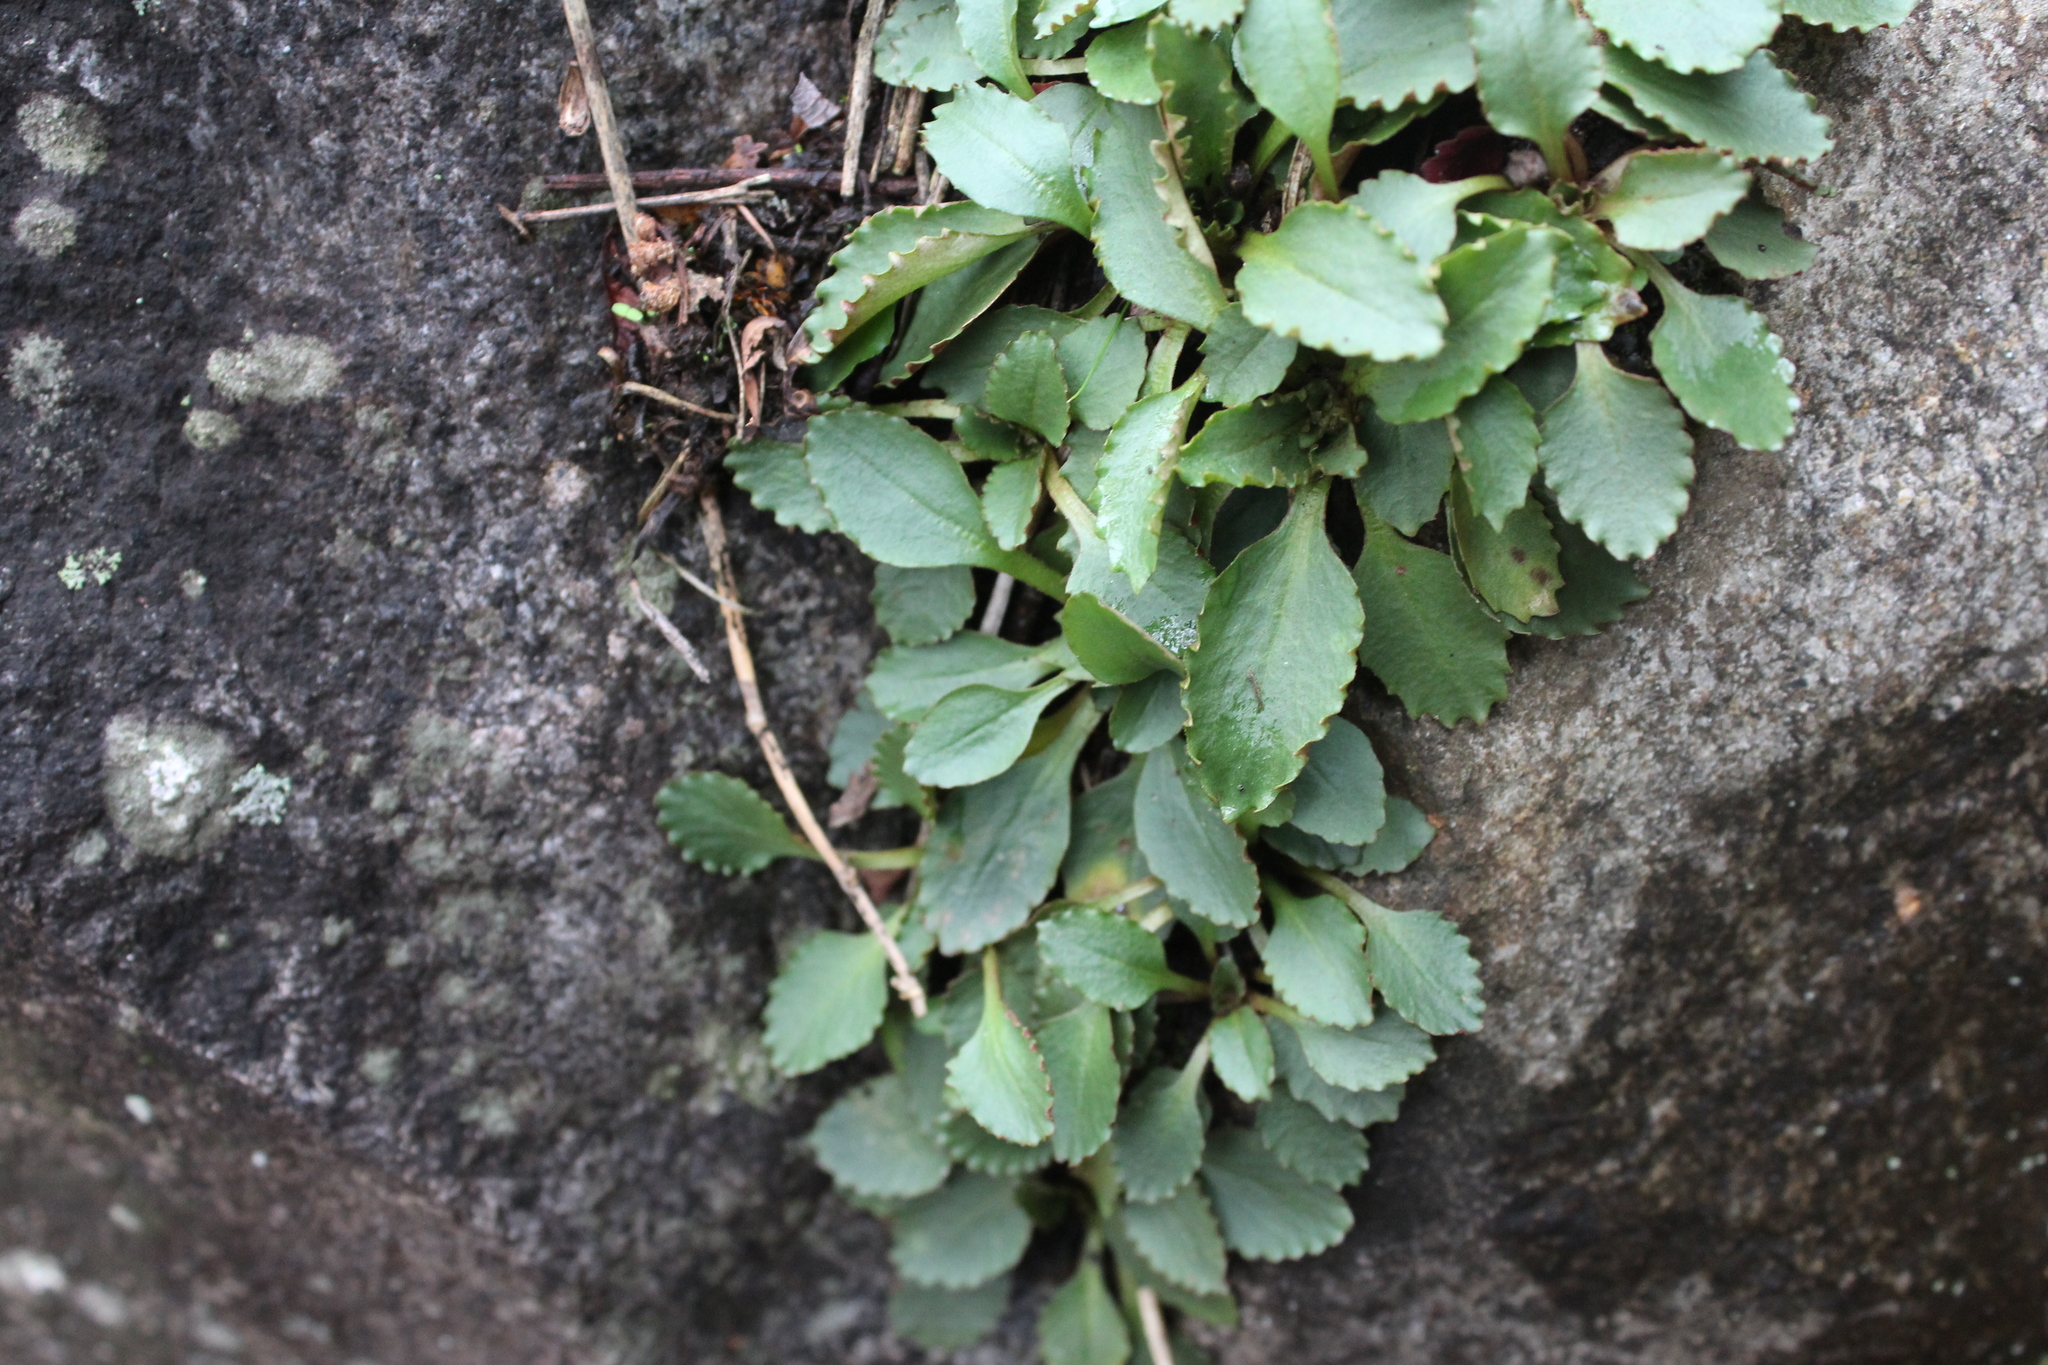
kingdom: Plantae
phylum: Tracheophyta
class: Magnoliopsida
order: Saxifragales
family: Saxifragaceae
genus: Micranthes
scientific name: Micranthes virginiensis
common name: Early saxifrage
